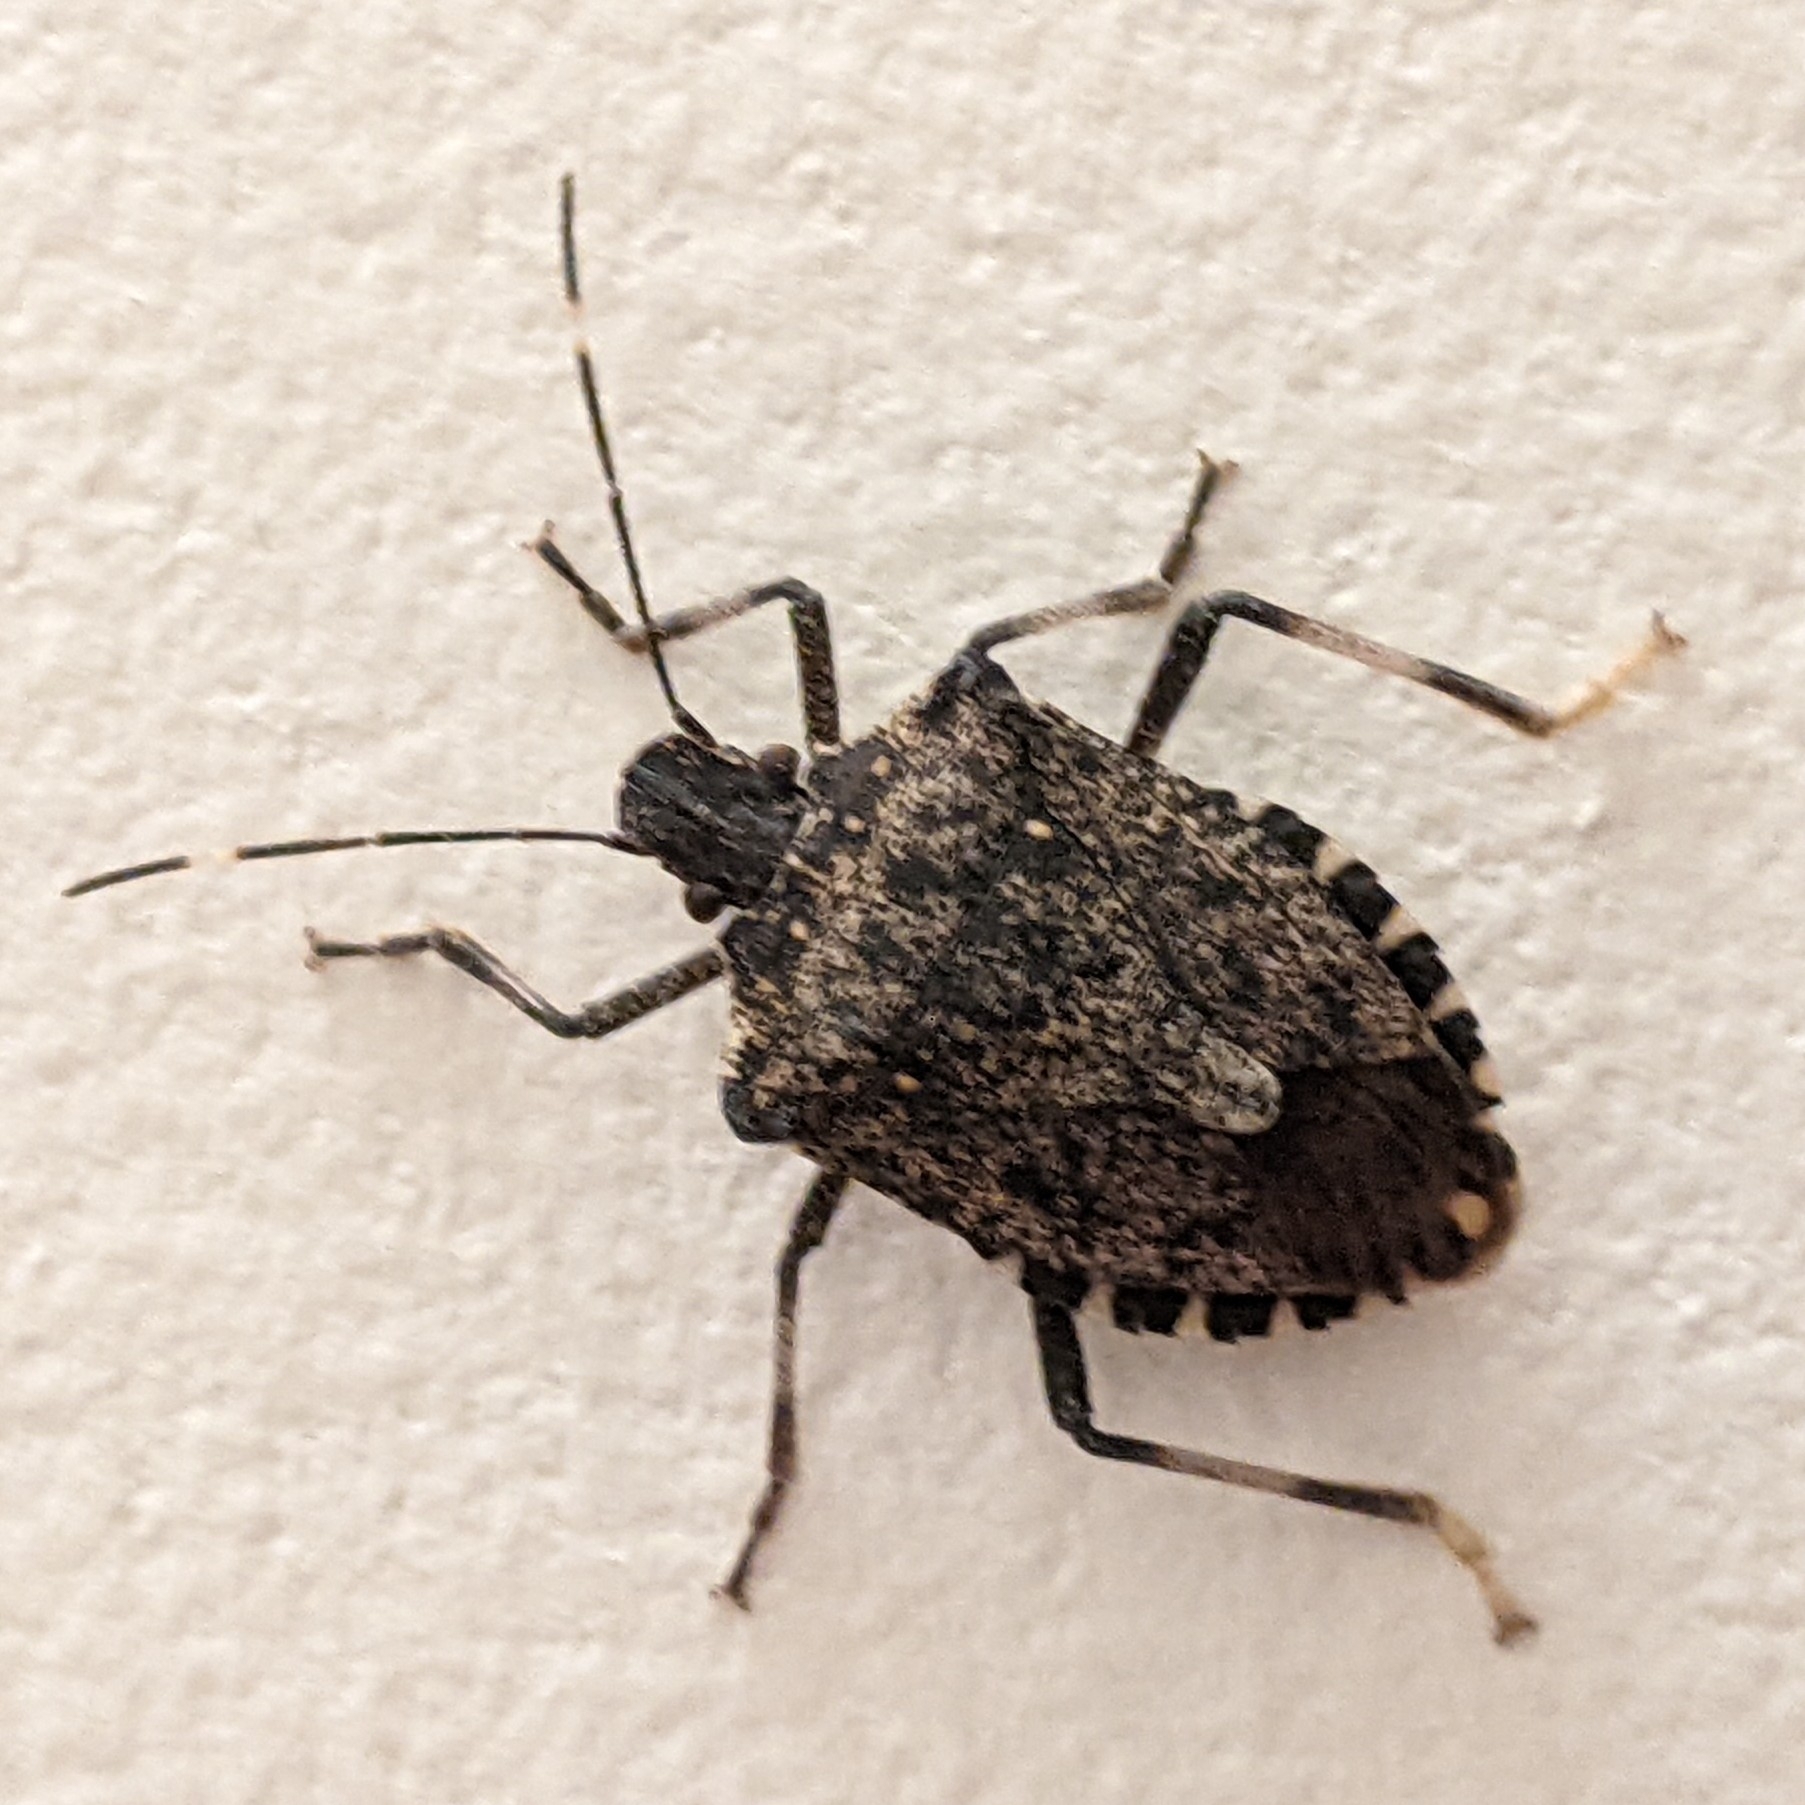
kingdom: Animalia
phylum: Arthropoda
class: Insecta
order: Hemiptera
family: Pentatomidae
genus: Halyomorpha
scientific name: Halyomorpha halys
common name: Brown marmorated stink bug
